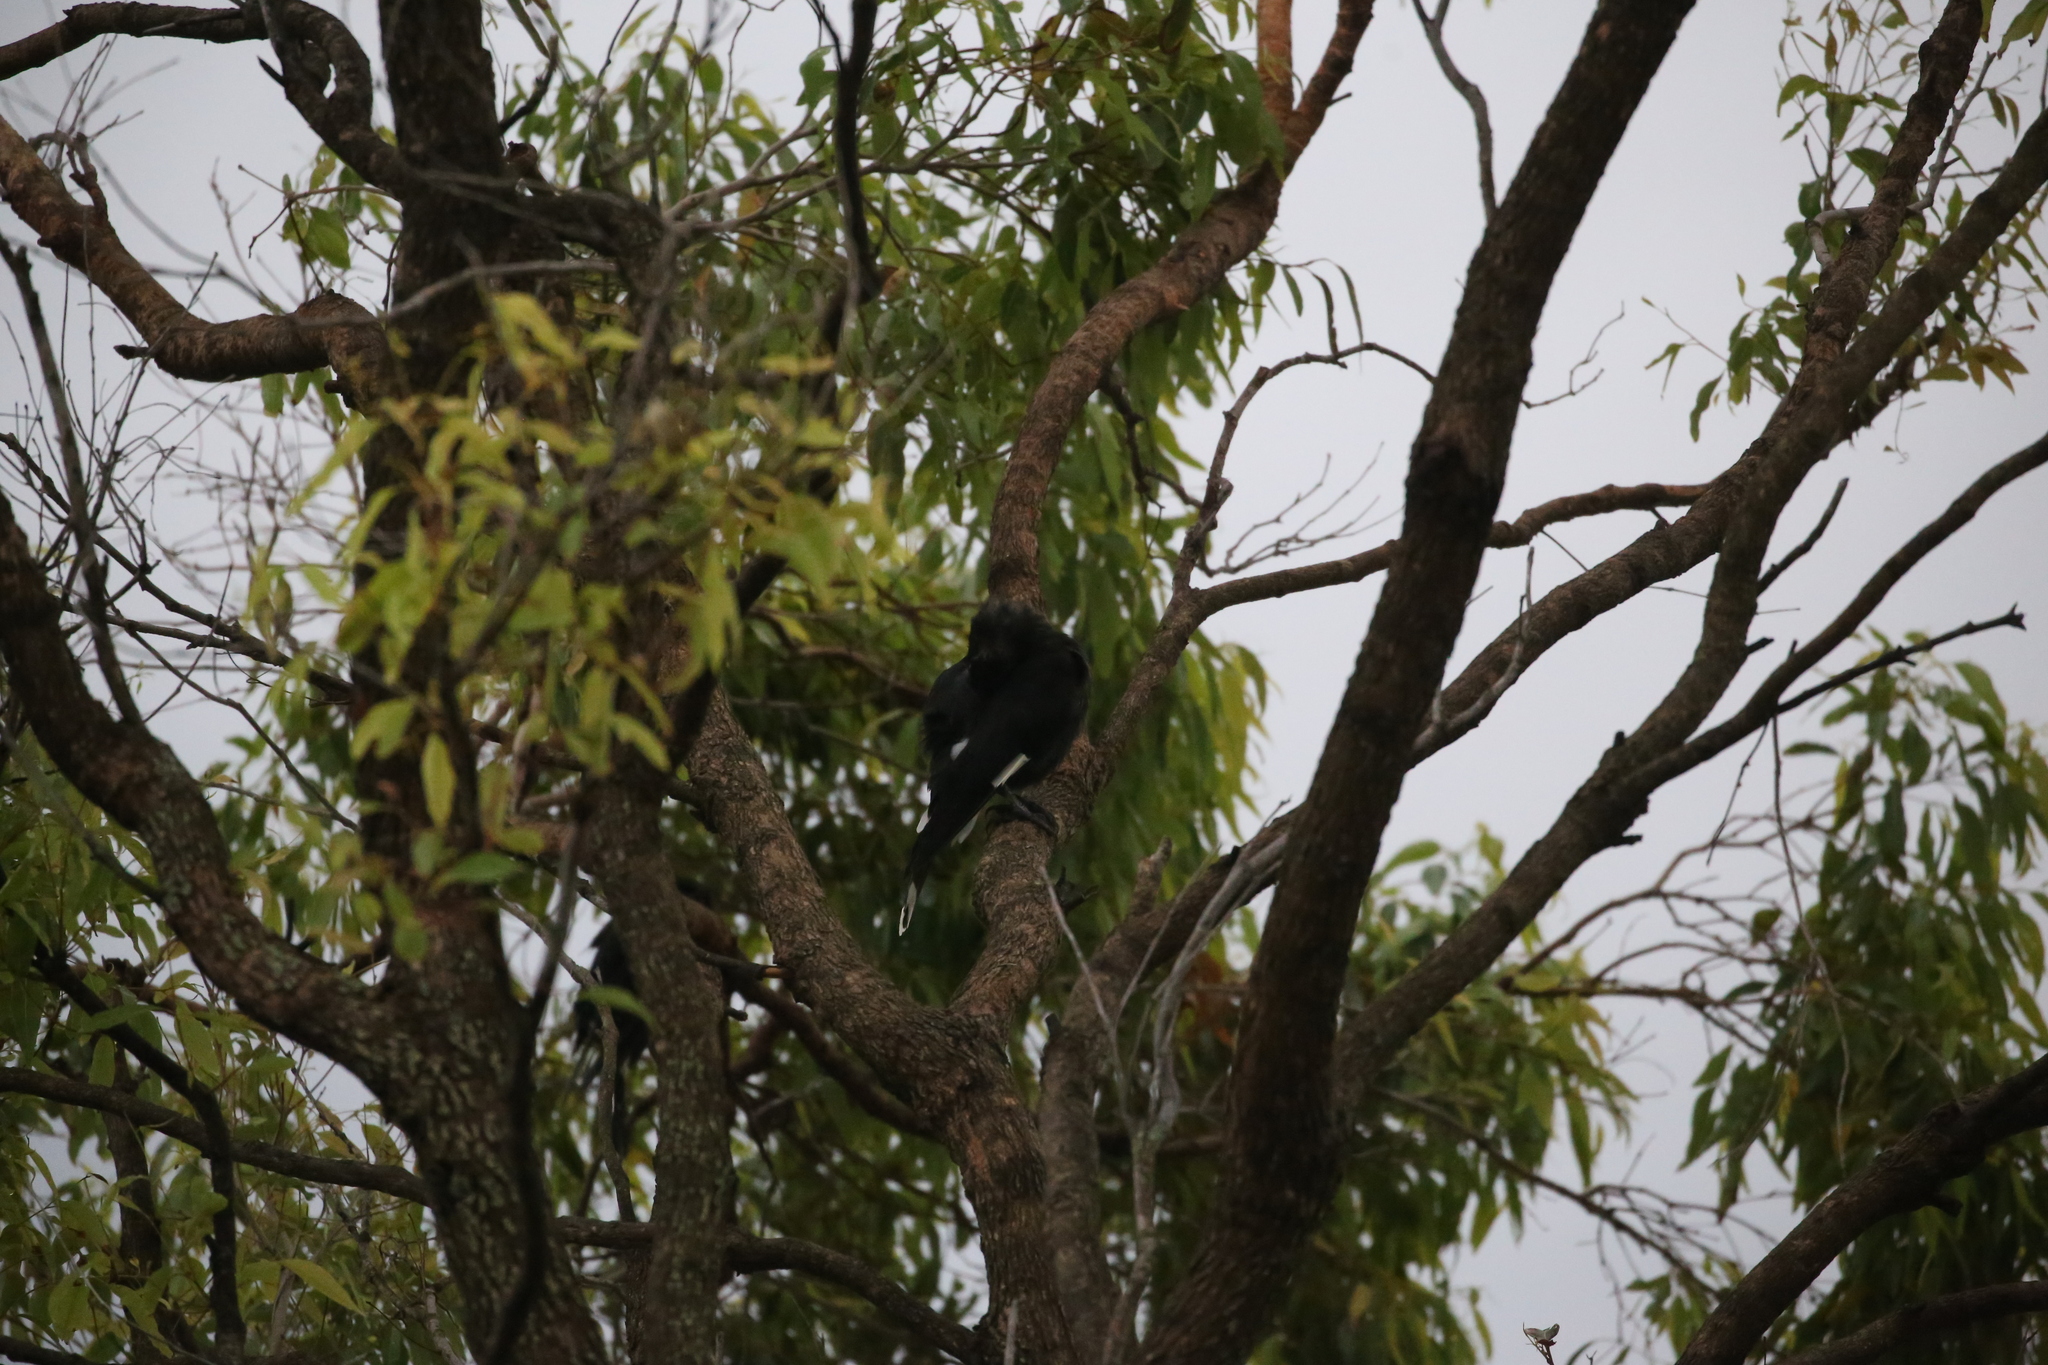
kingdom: Animalia
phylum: Chordata
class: Aves
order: Passeriformes
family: Cracticidae
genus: Strepera
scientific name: Strepera graculina
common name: Pied currawong
